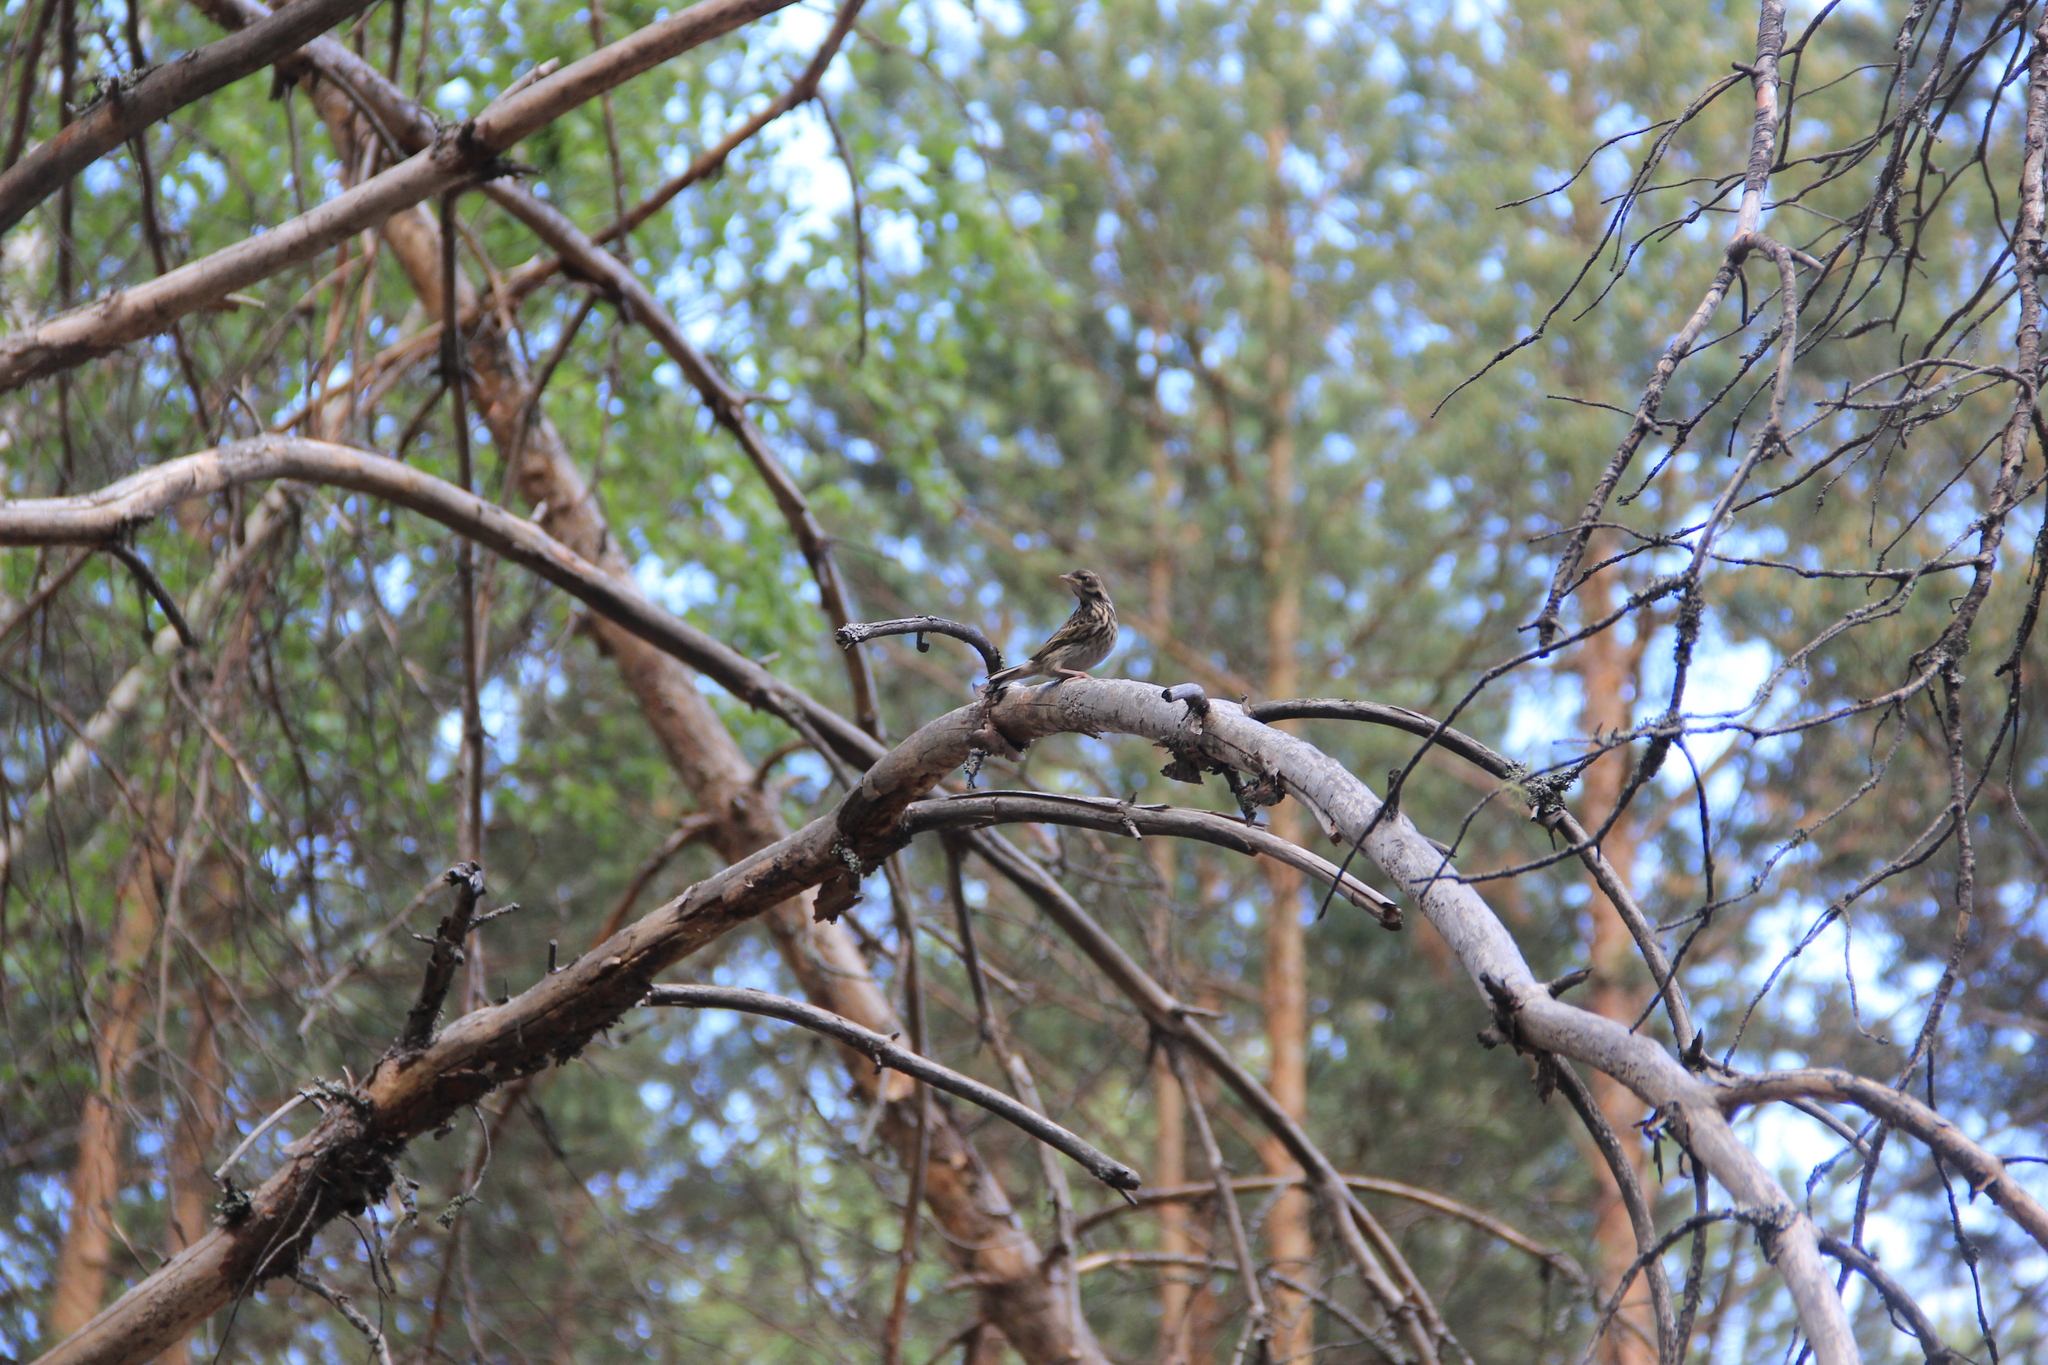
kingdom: Animalia
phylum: Chordata
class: Aves
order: Passeriformes
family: Motacillidae
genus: Anthus
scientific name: Anthus trivialis
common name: Tree pipit
